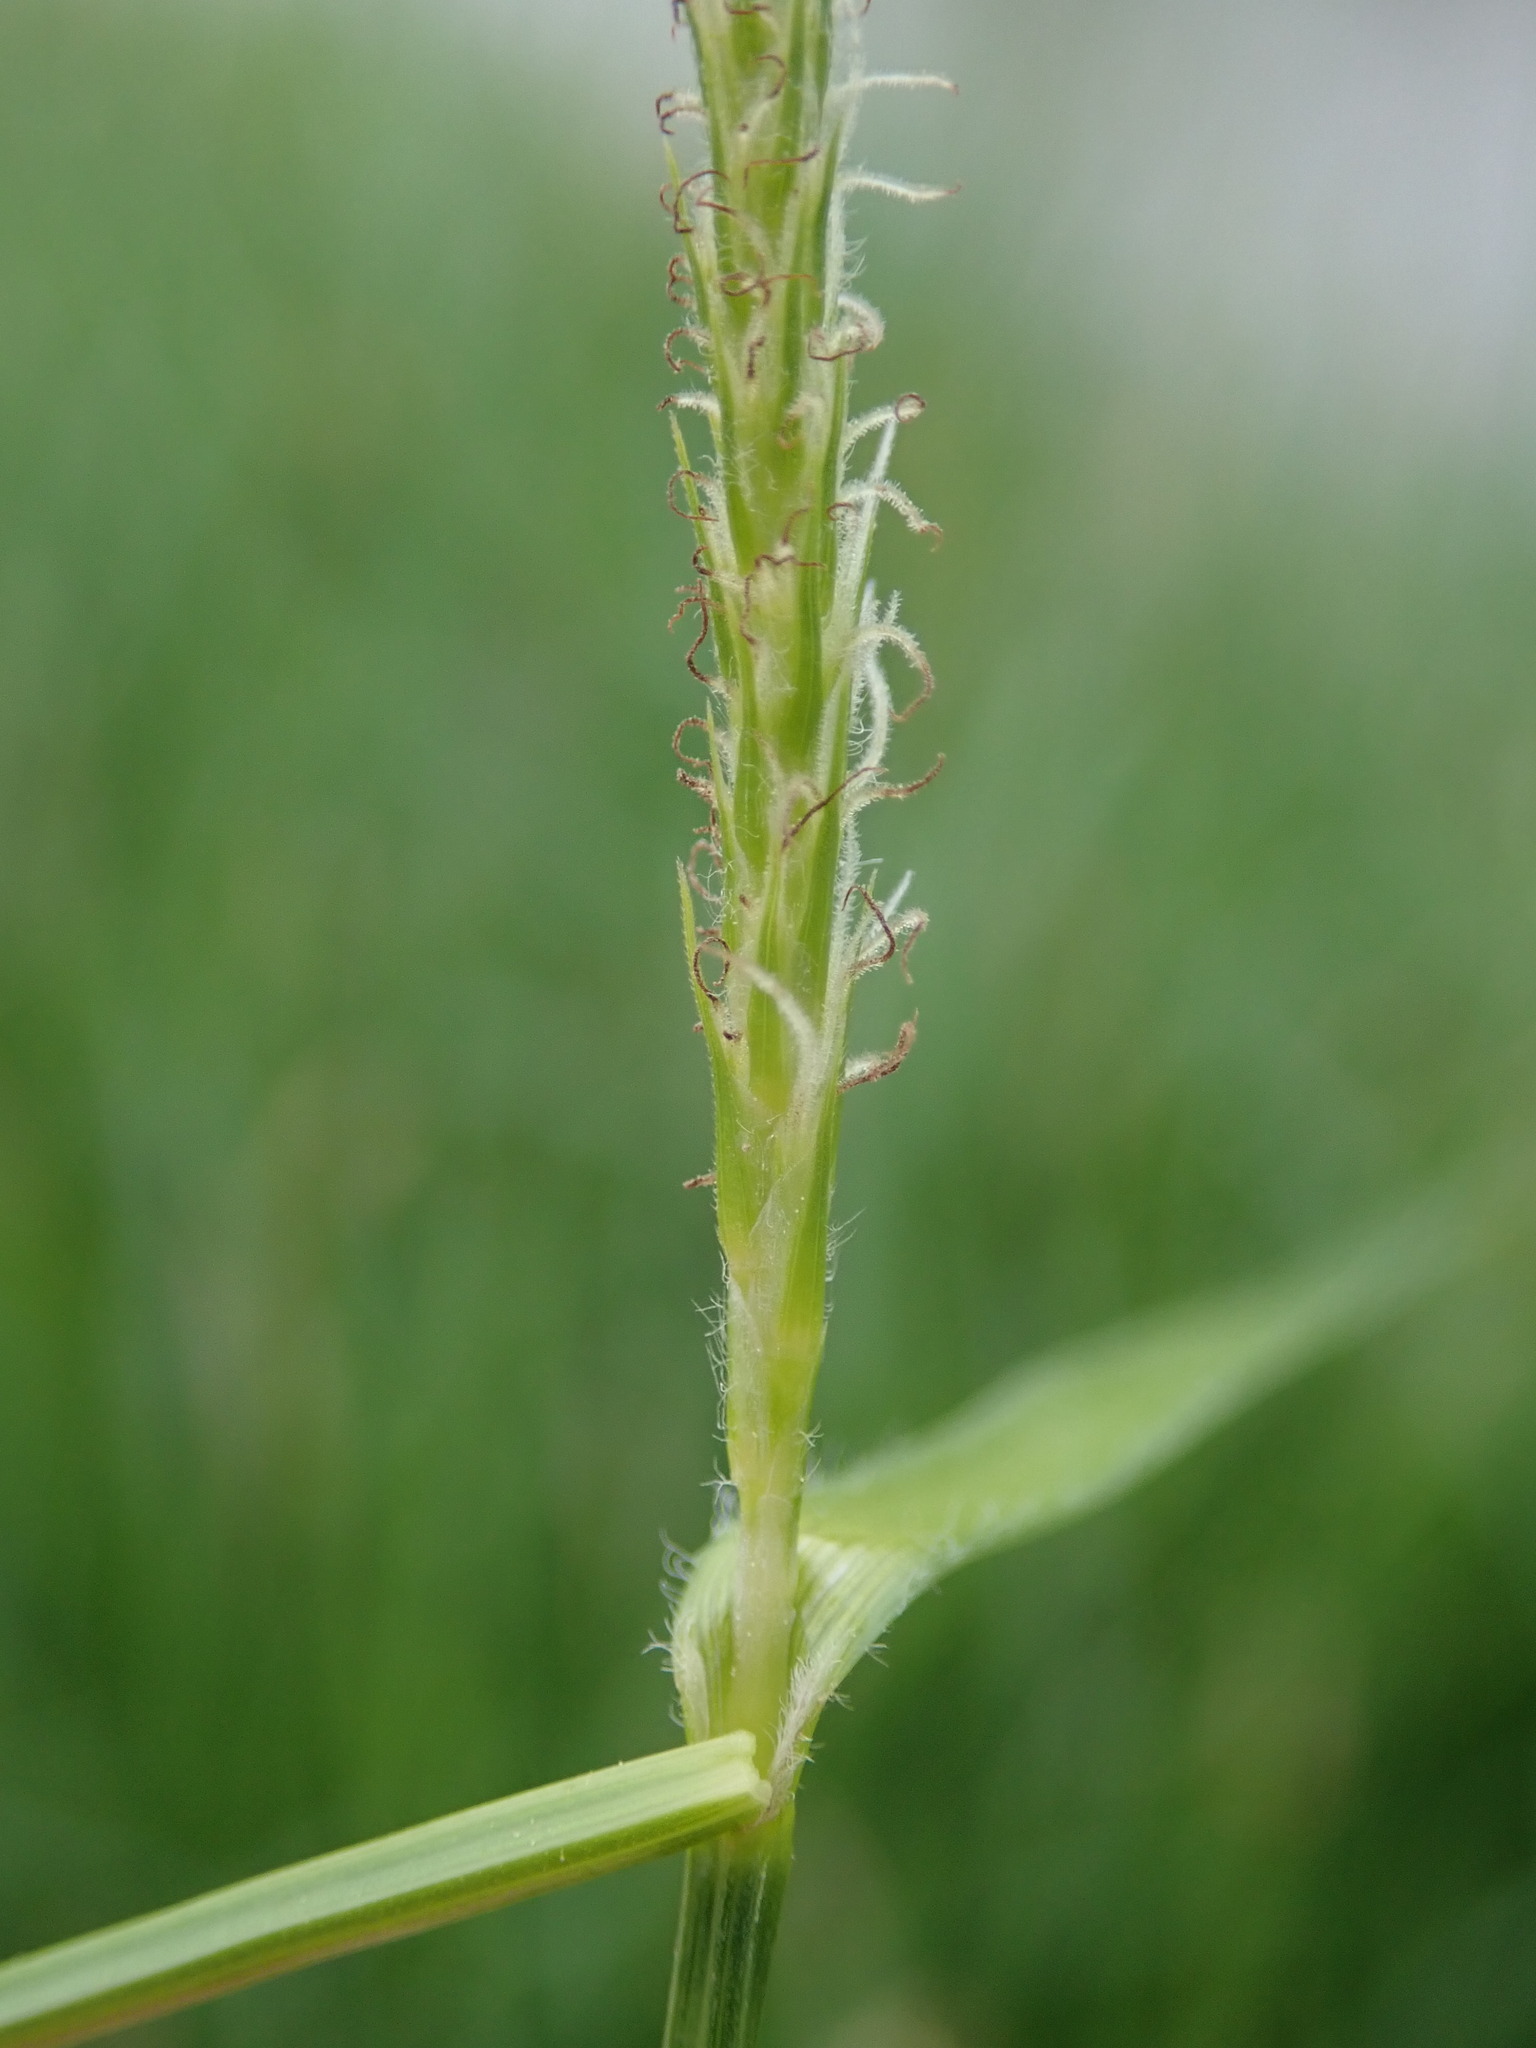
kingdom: Plantae
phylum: Tracheophyta
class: Liliopsida
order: Poales
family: Cyperaceae
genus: Carex
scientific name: Carex hirta
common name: Hairy sedge
